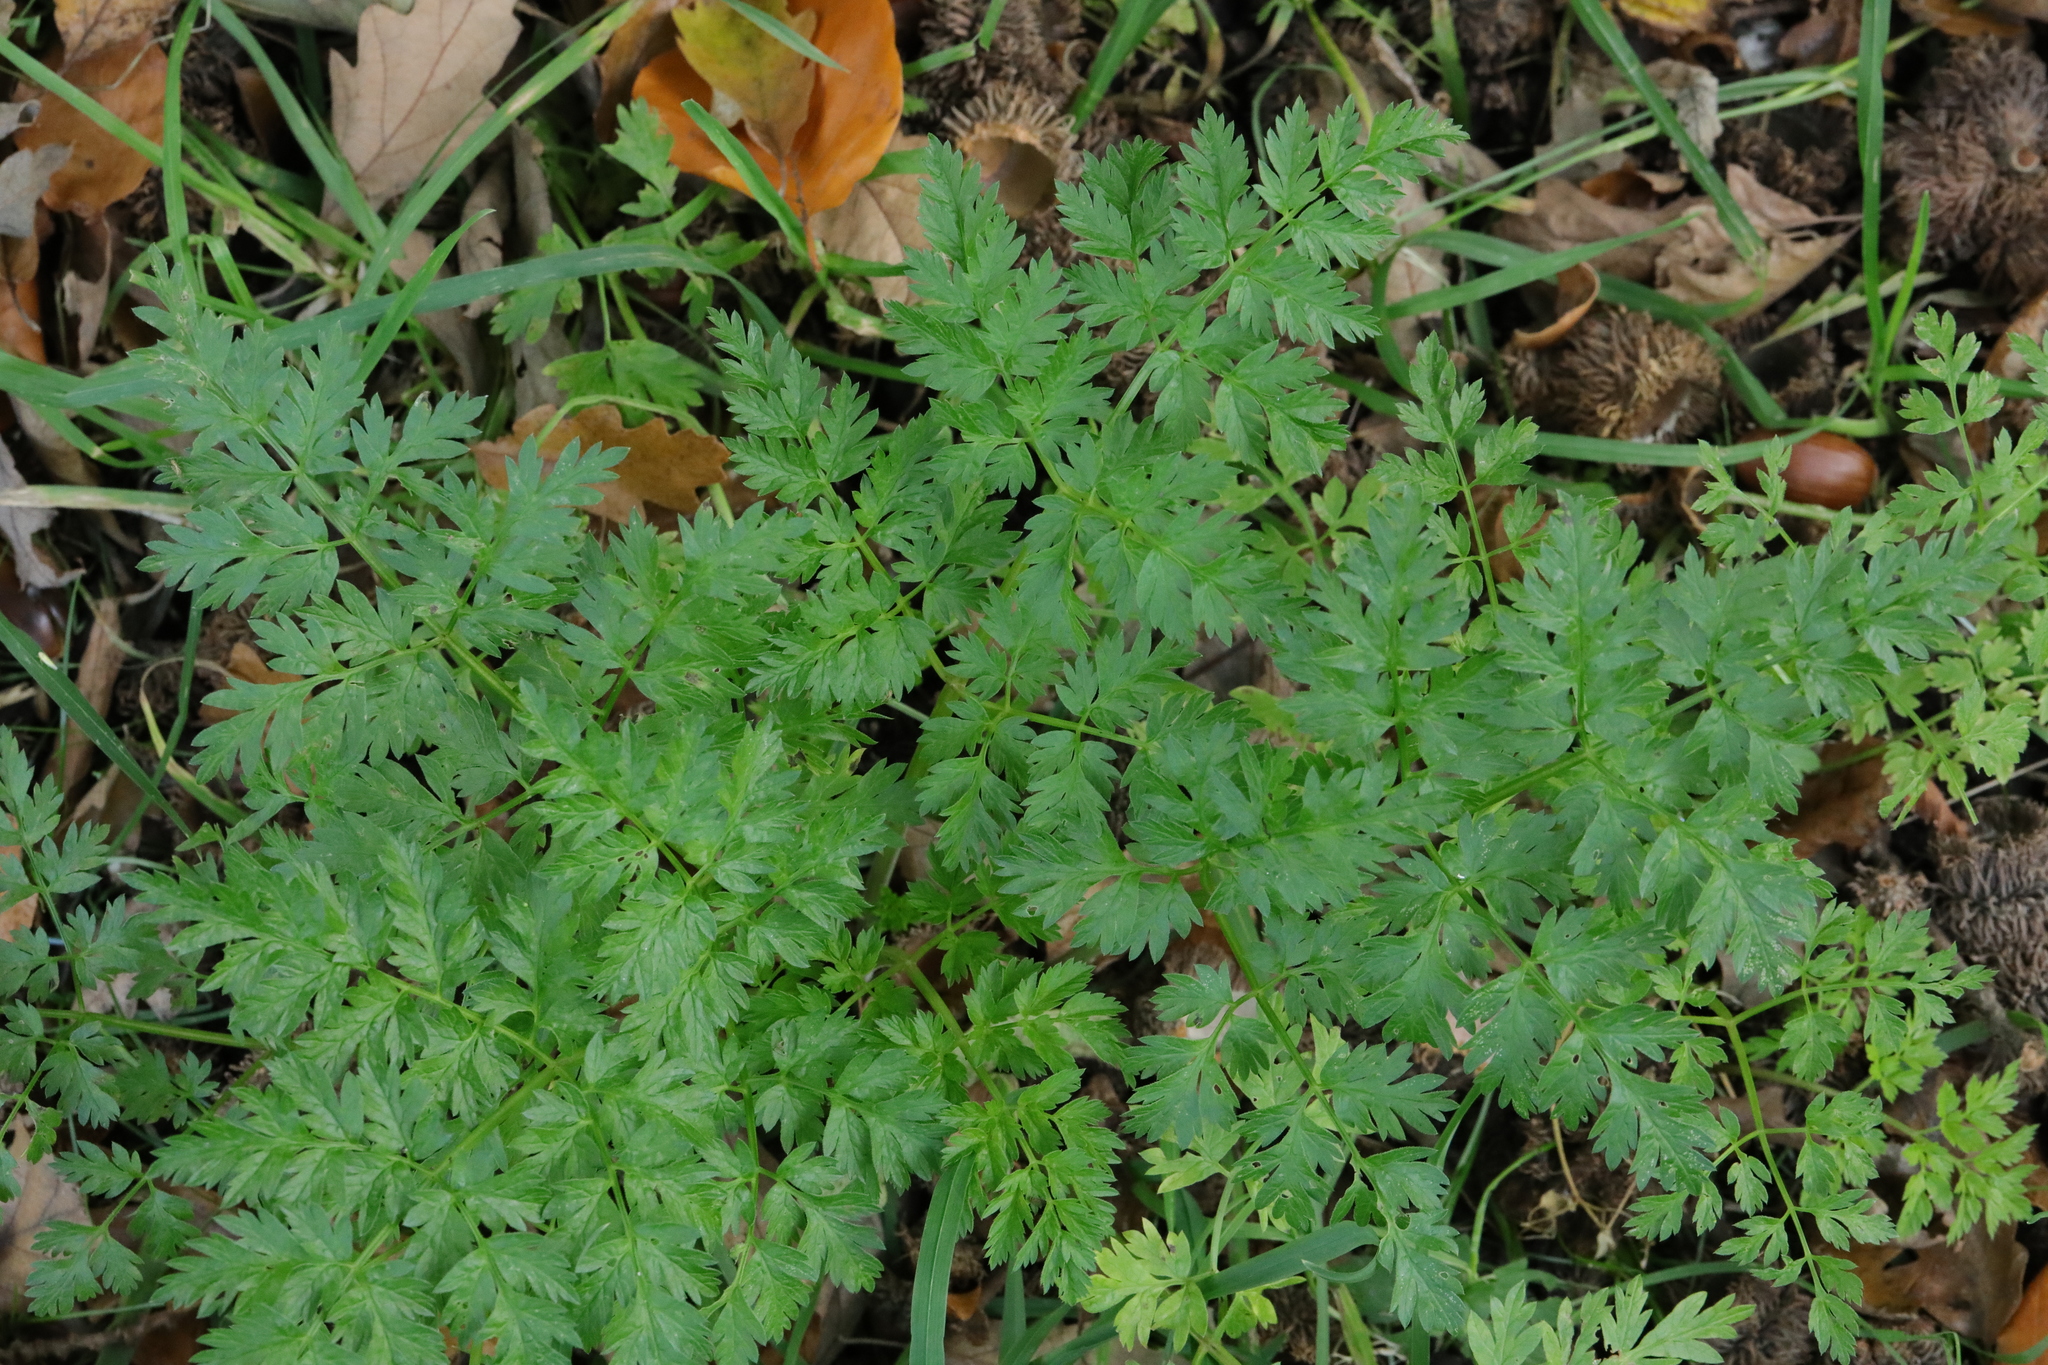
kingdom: Plantae
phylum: Tracheophyta
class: Magnoliopsida
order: Apiales
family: Apiaceae
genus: Anthriscus
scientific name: Anthriscus sylvestris
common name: Cow parsley
